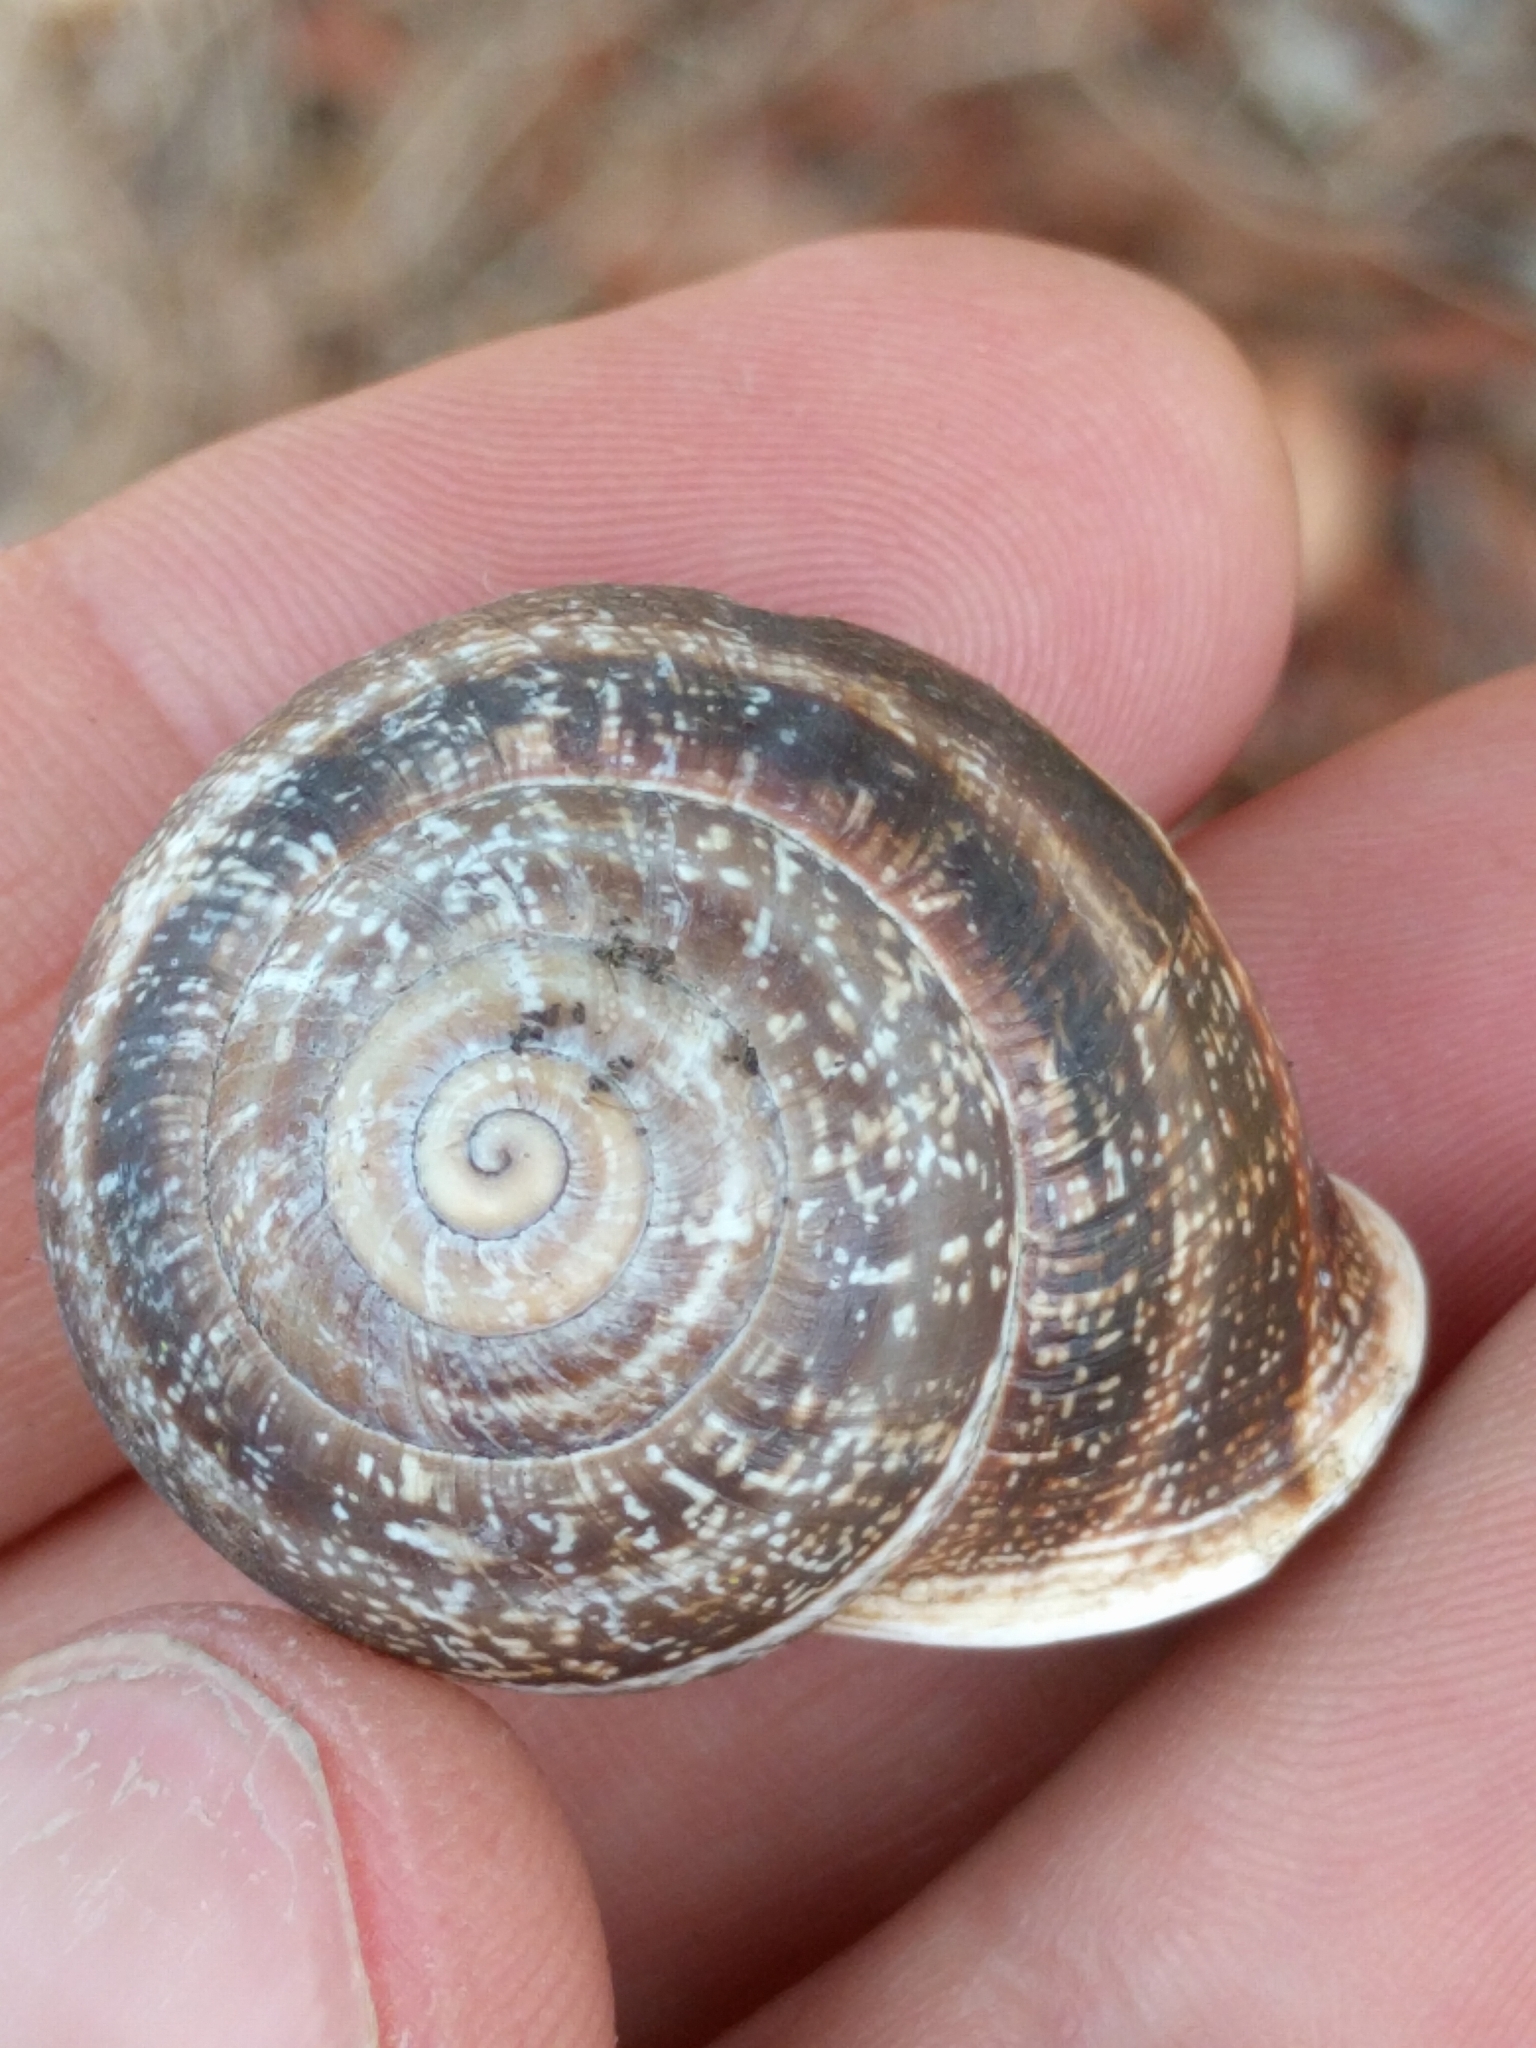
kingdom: Animalia
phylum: Mollusca
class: Gastropoda
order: Stylommatophora
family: Helicidae
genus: Otala
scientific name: Otala lactea
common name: Milk snail
